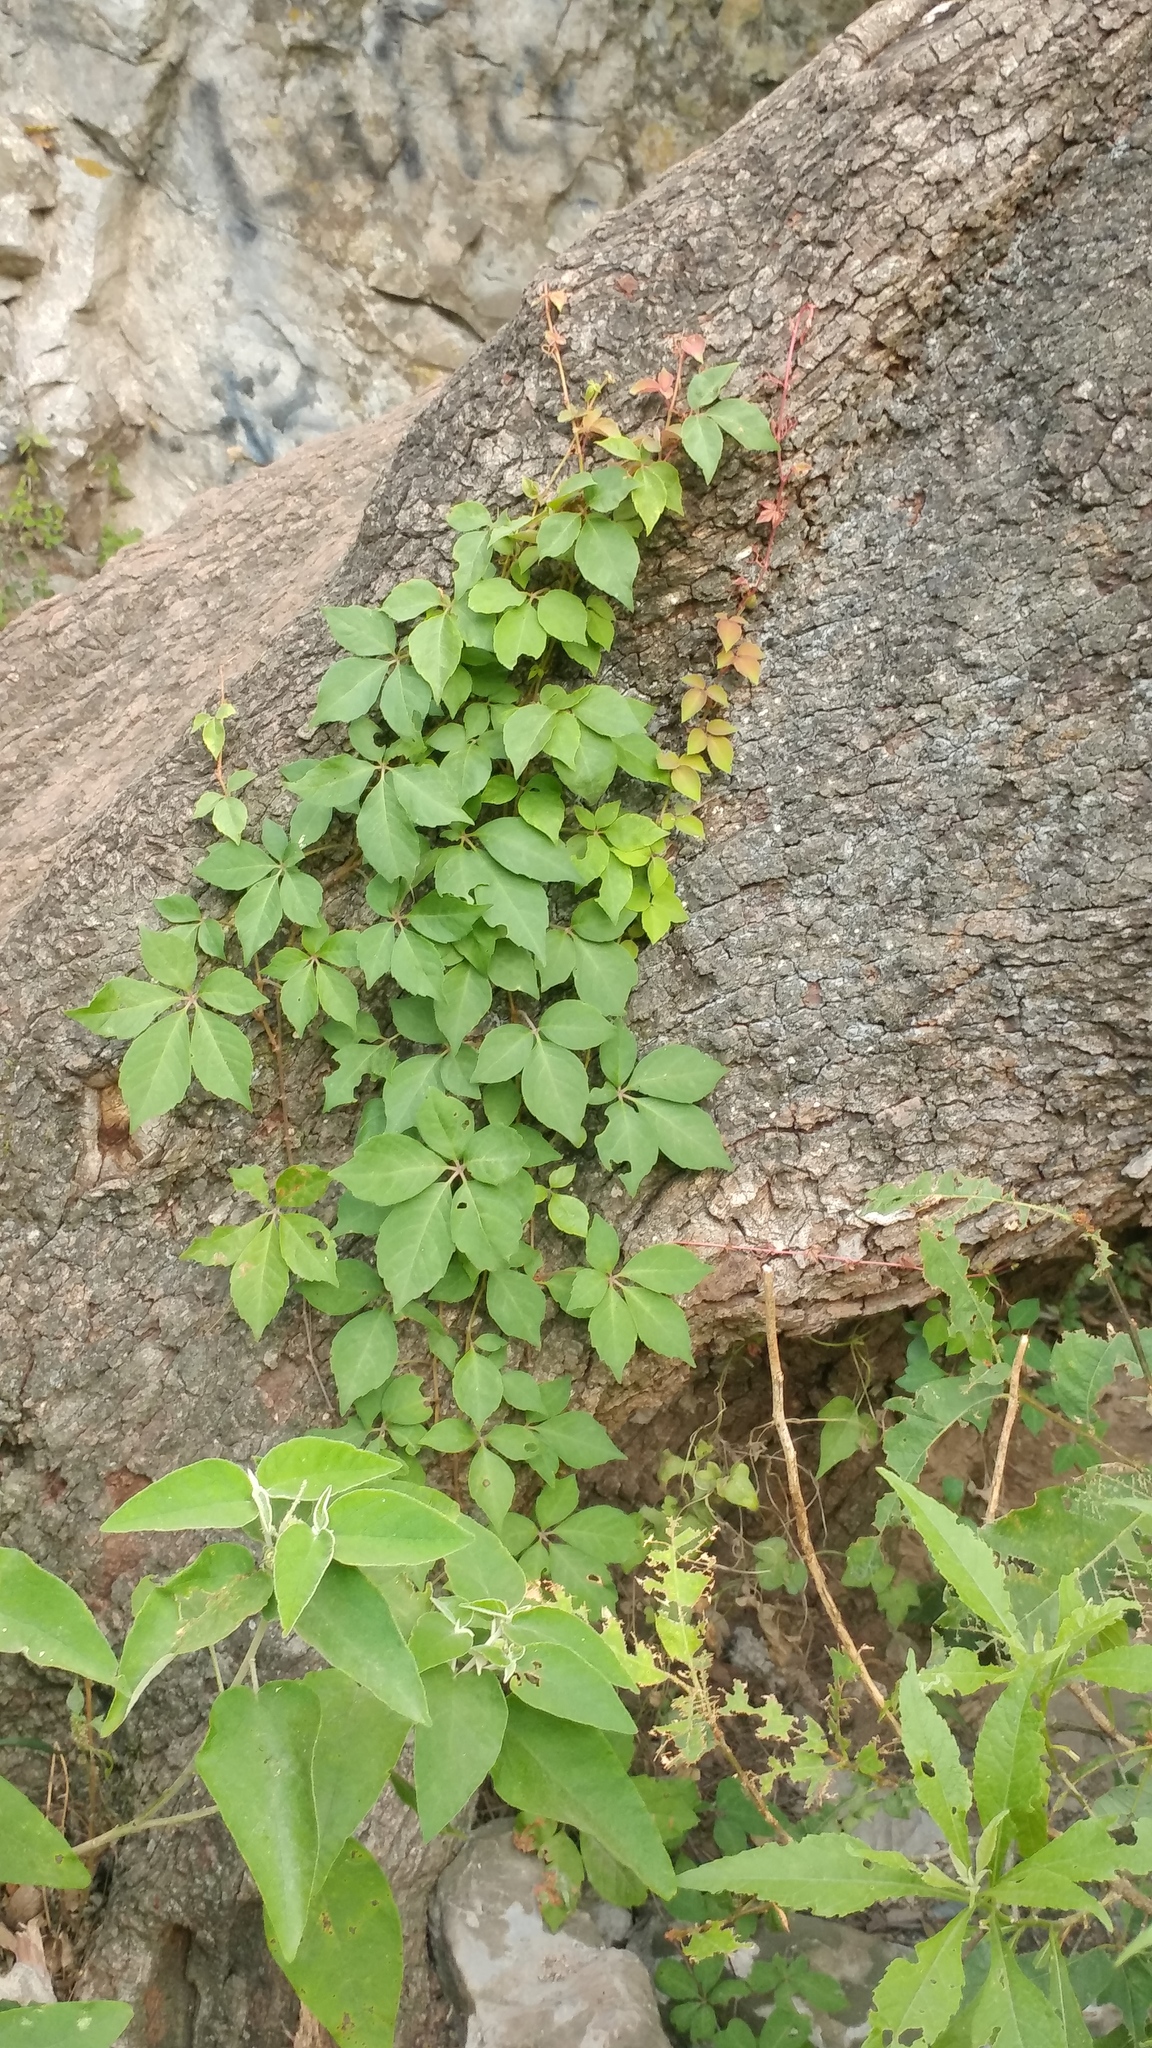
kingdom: Plantae
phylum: Tracheophyta
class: Magnoliopsida
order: Vitales
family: Vitaceae
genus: Parthenocissus
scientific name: Parthenocissus quinquefolia
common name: Virginia-creeper
